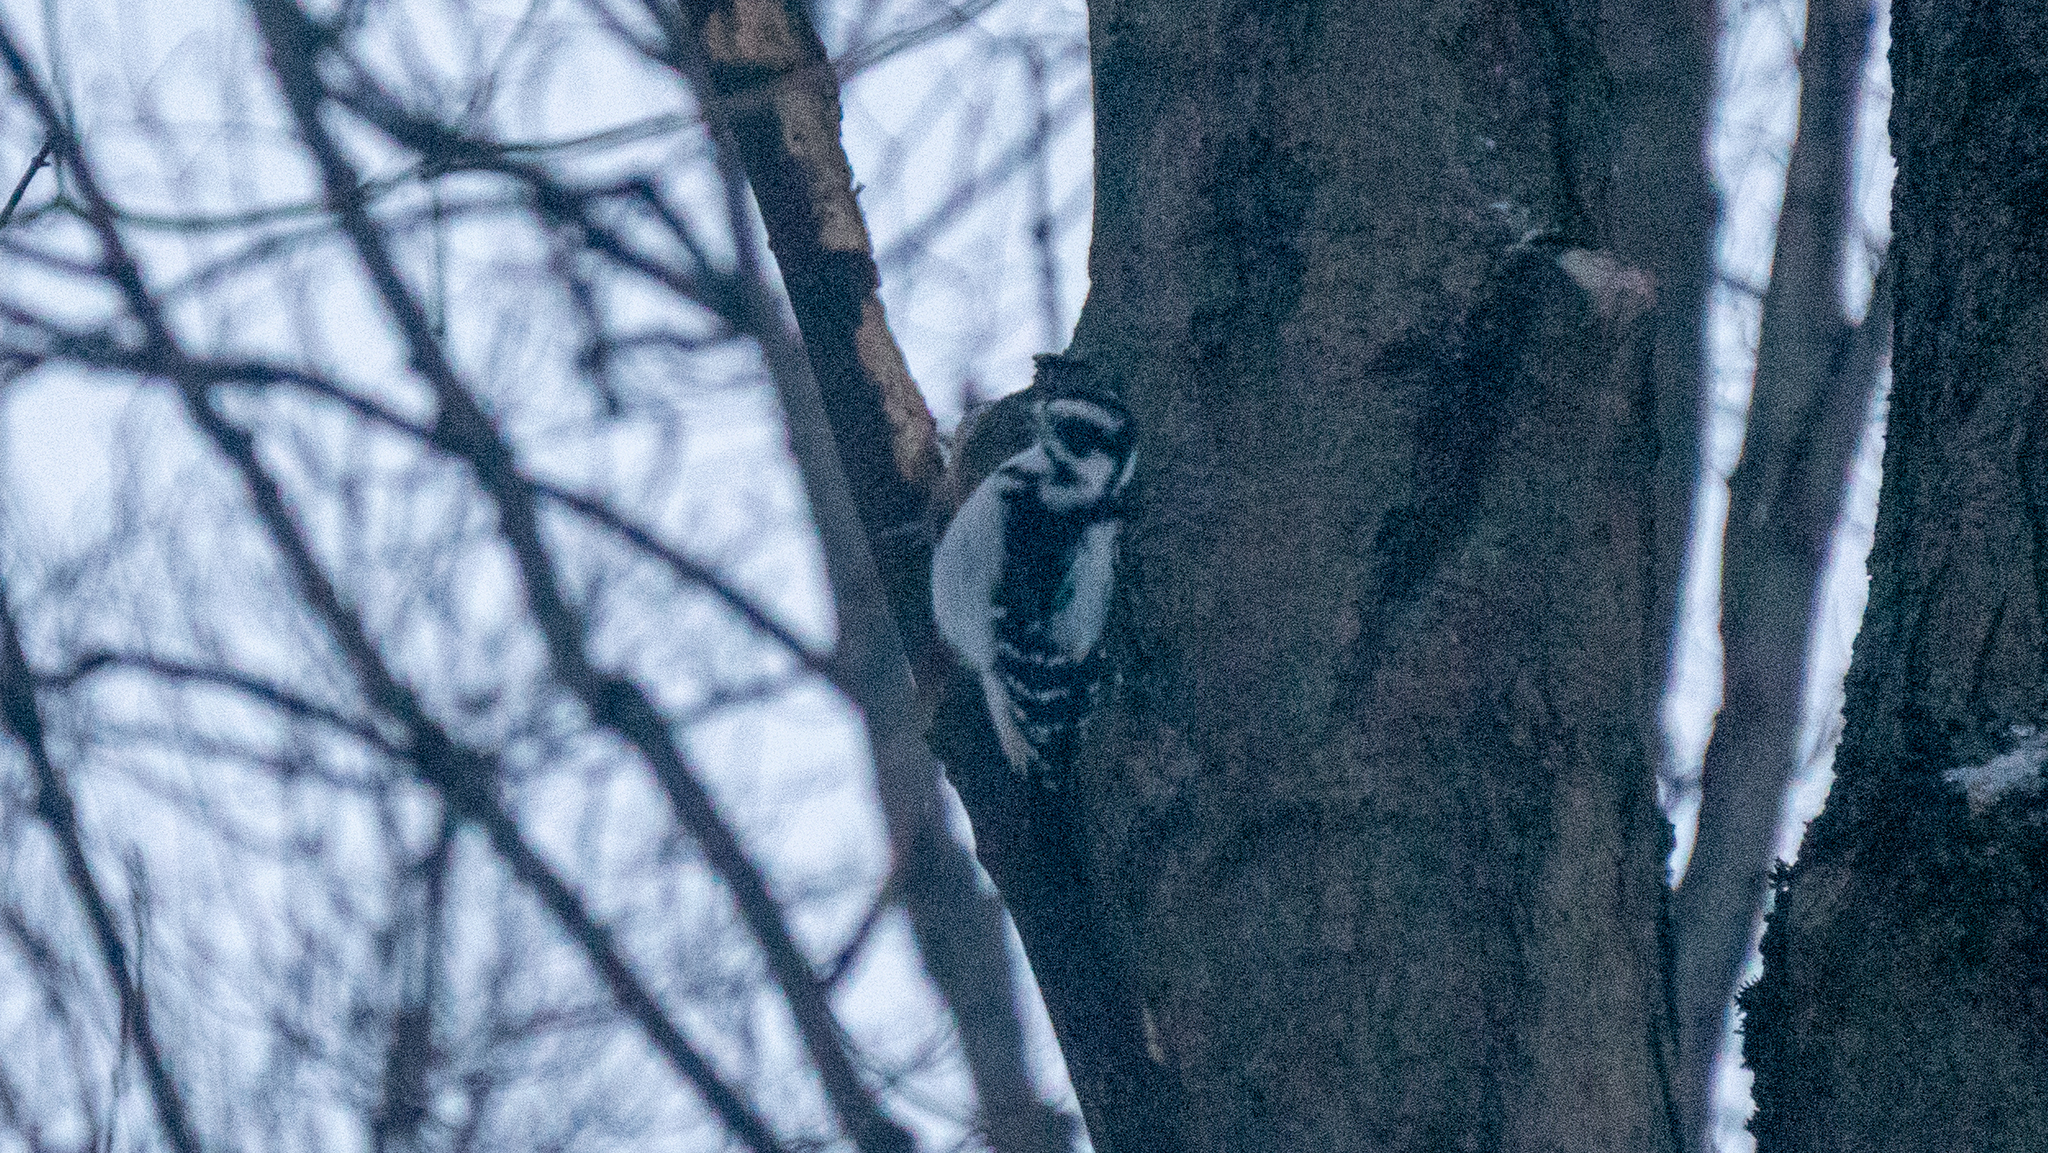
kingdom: Animalia
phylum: Chordata
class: Aves
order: Piciformes
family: Picidae
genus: Dryobates
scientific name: Dryobates pubescens
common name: Downy woodpecker
